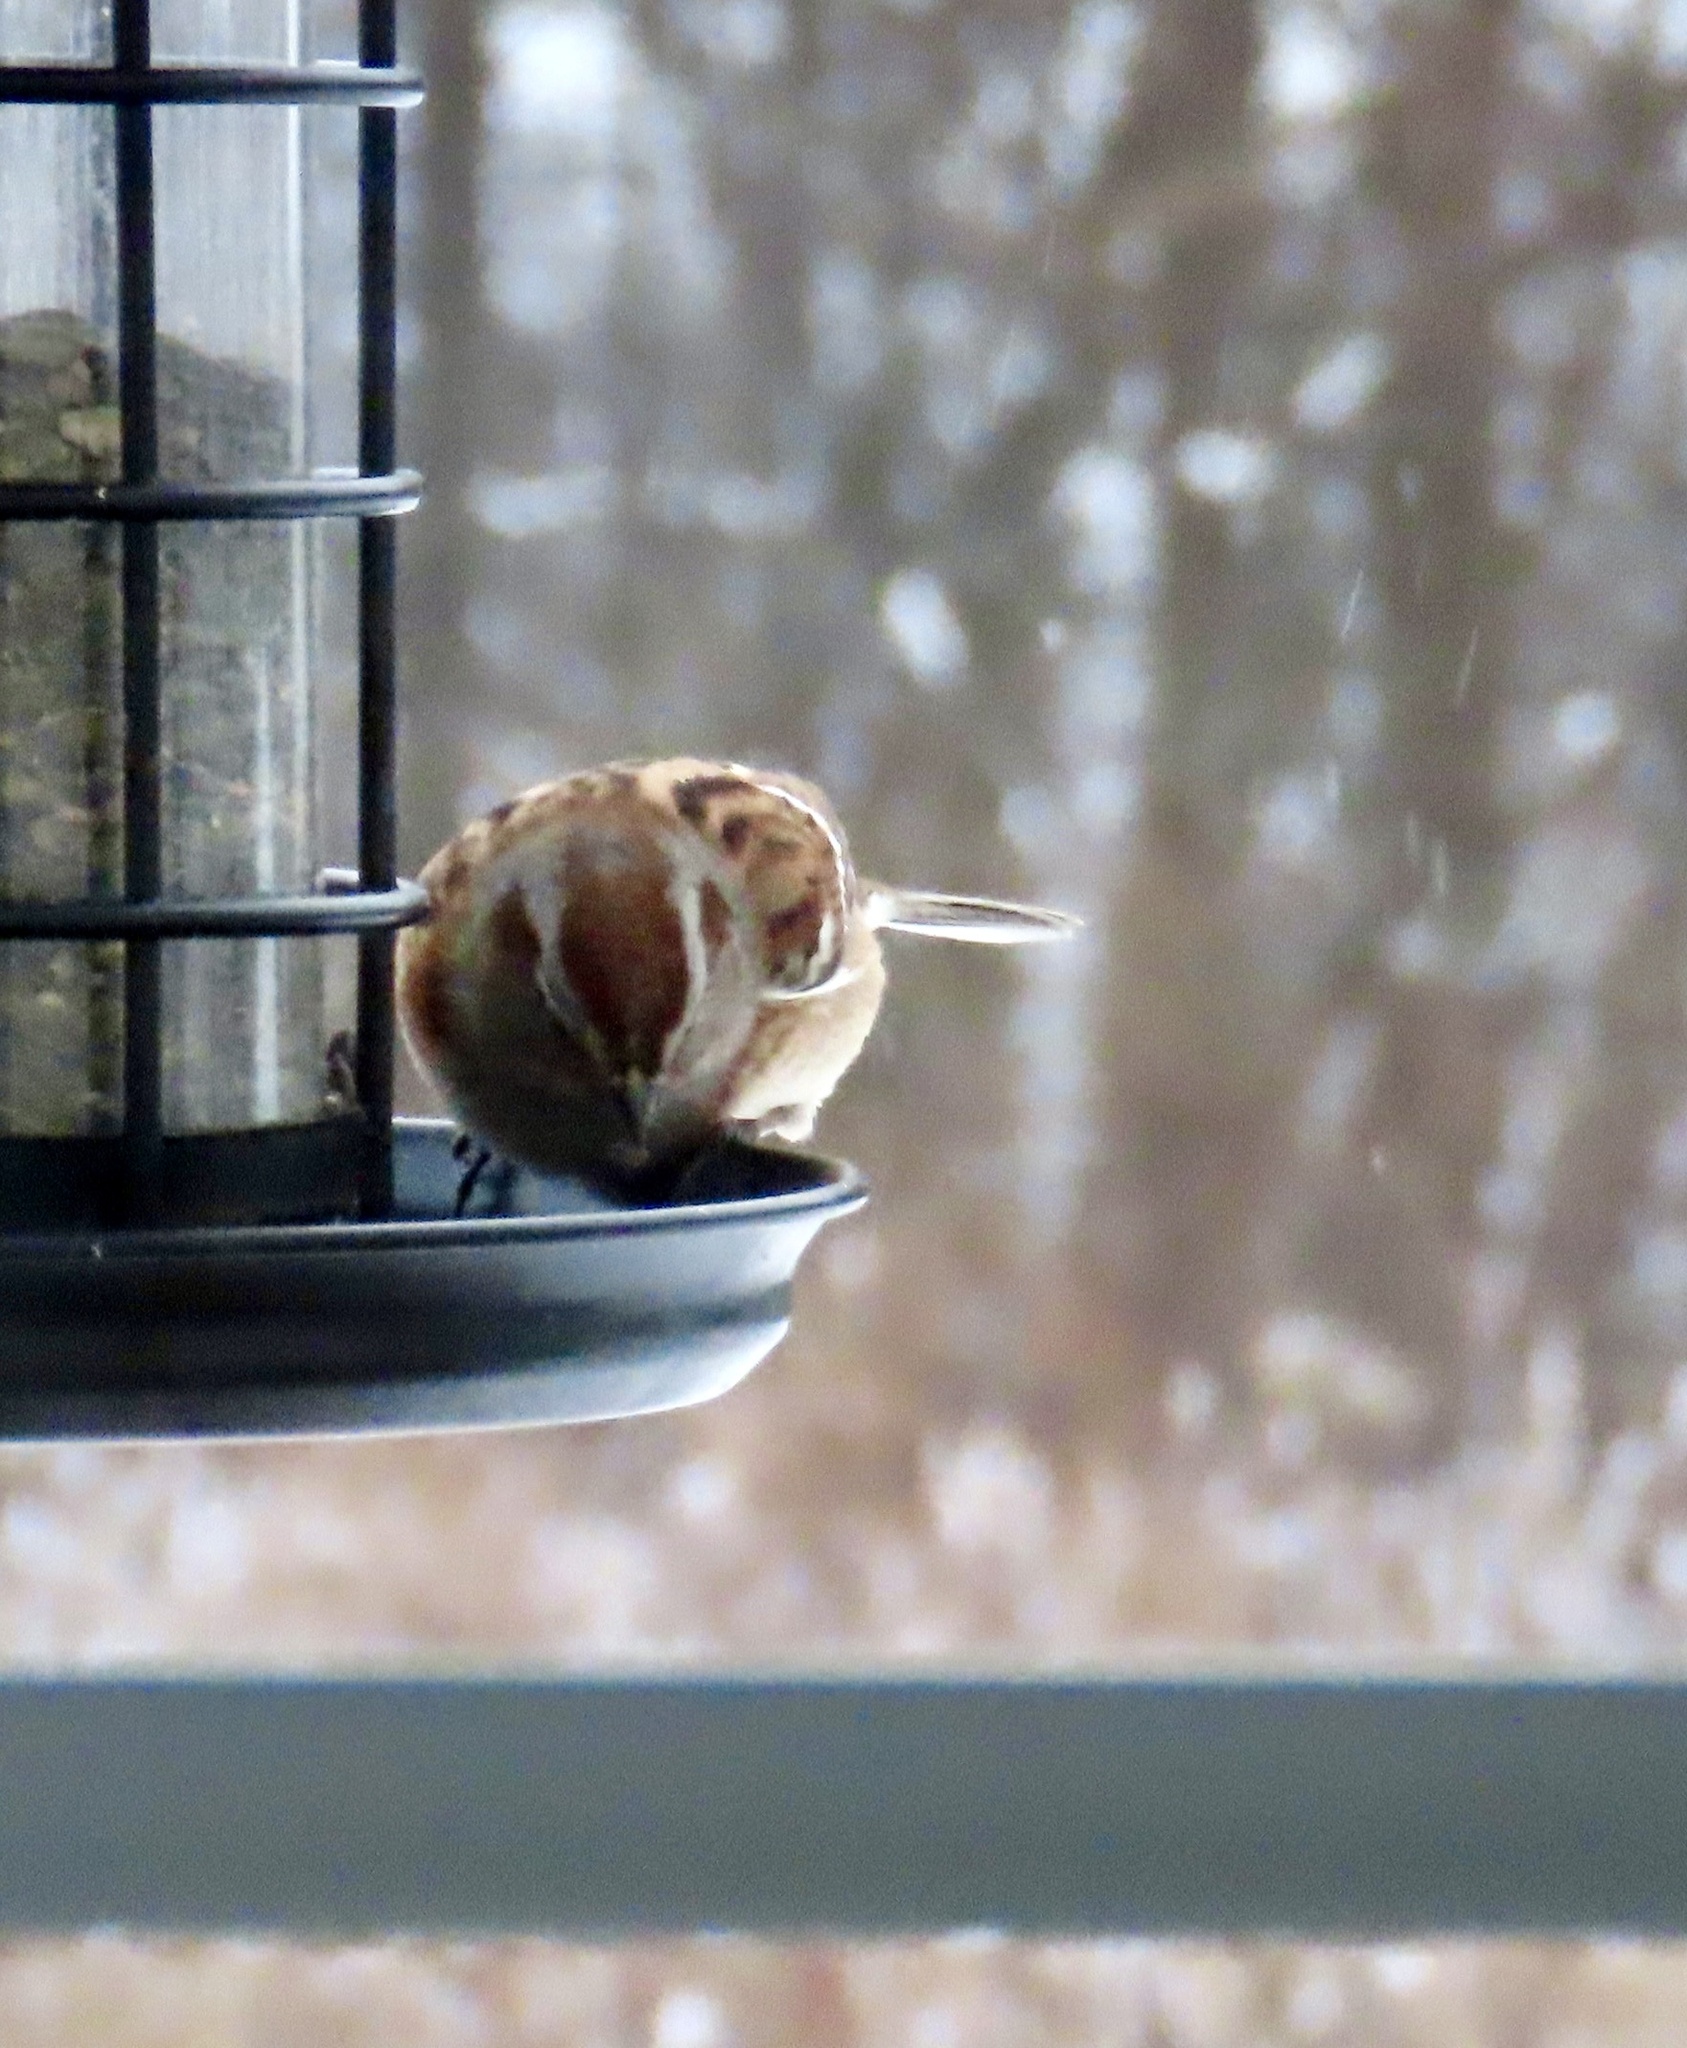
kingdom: Animalia
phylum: Chordata
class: Aves
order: Passeriformes
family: Passerellidae
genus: Spizelloides
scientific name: Spizelloides arborea
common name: American tree sparrow
